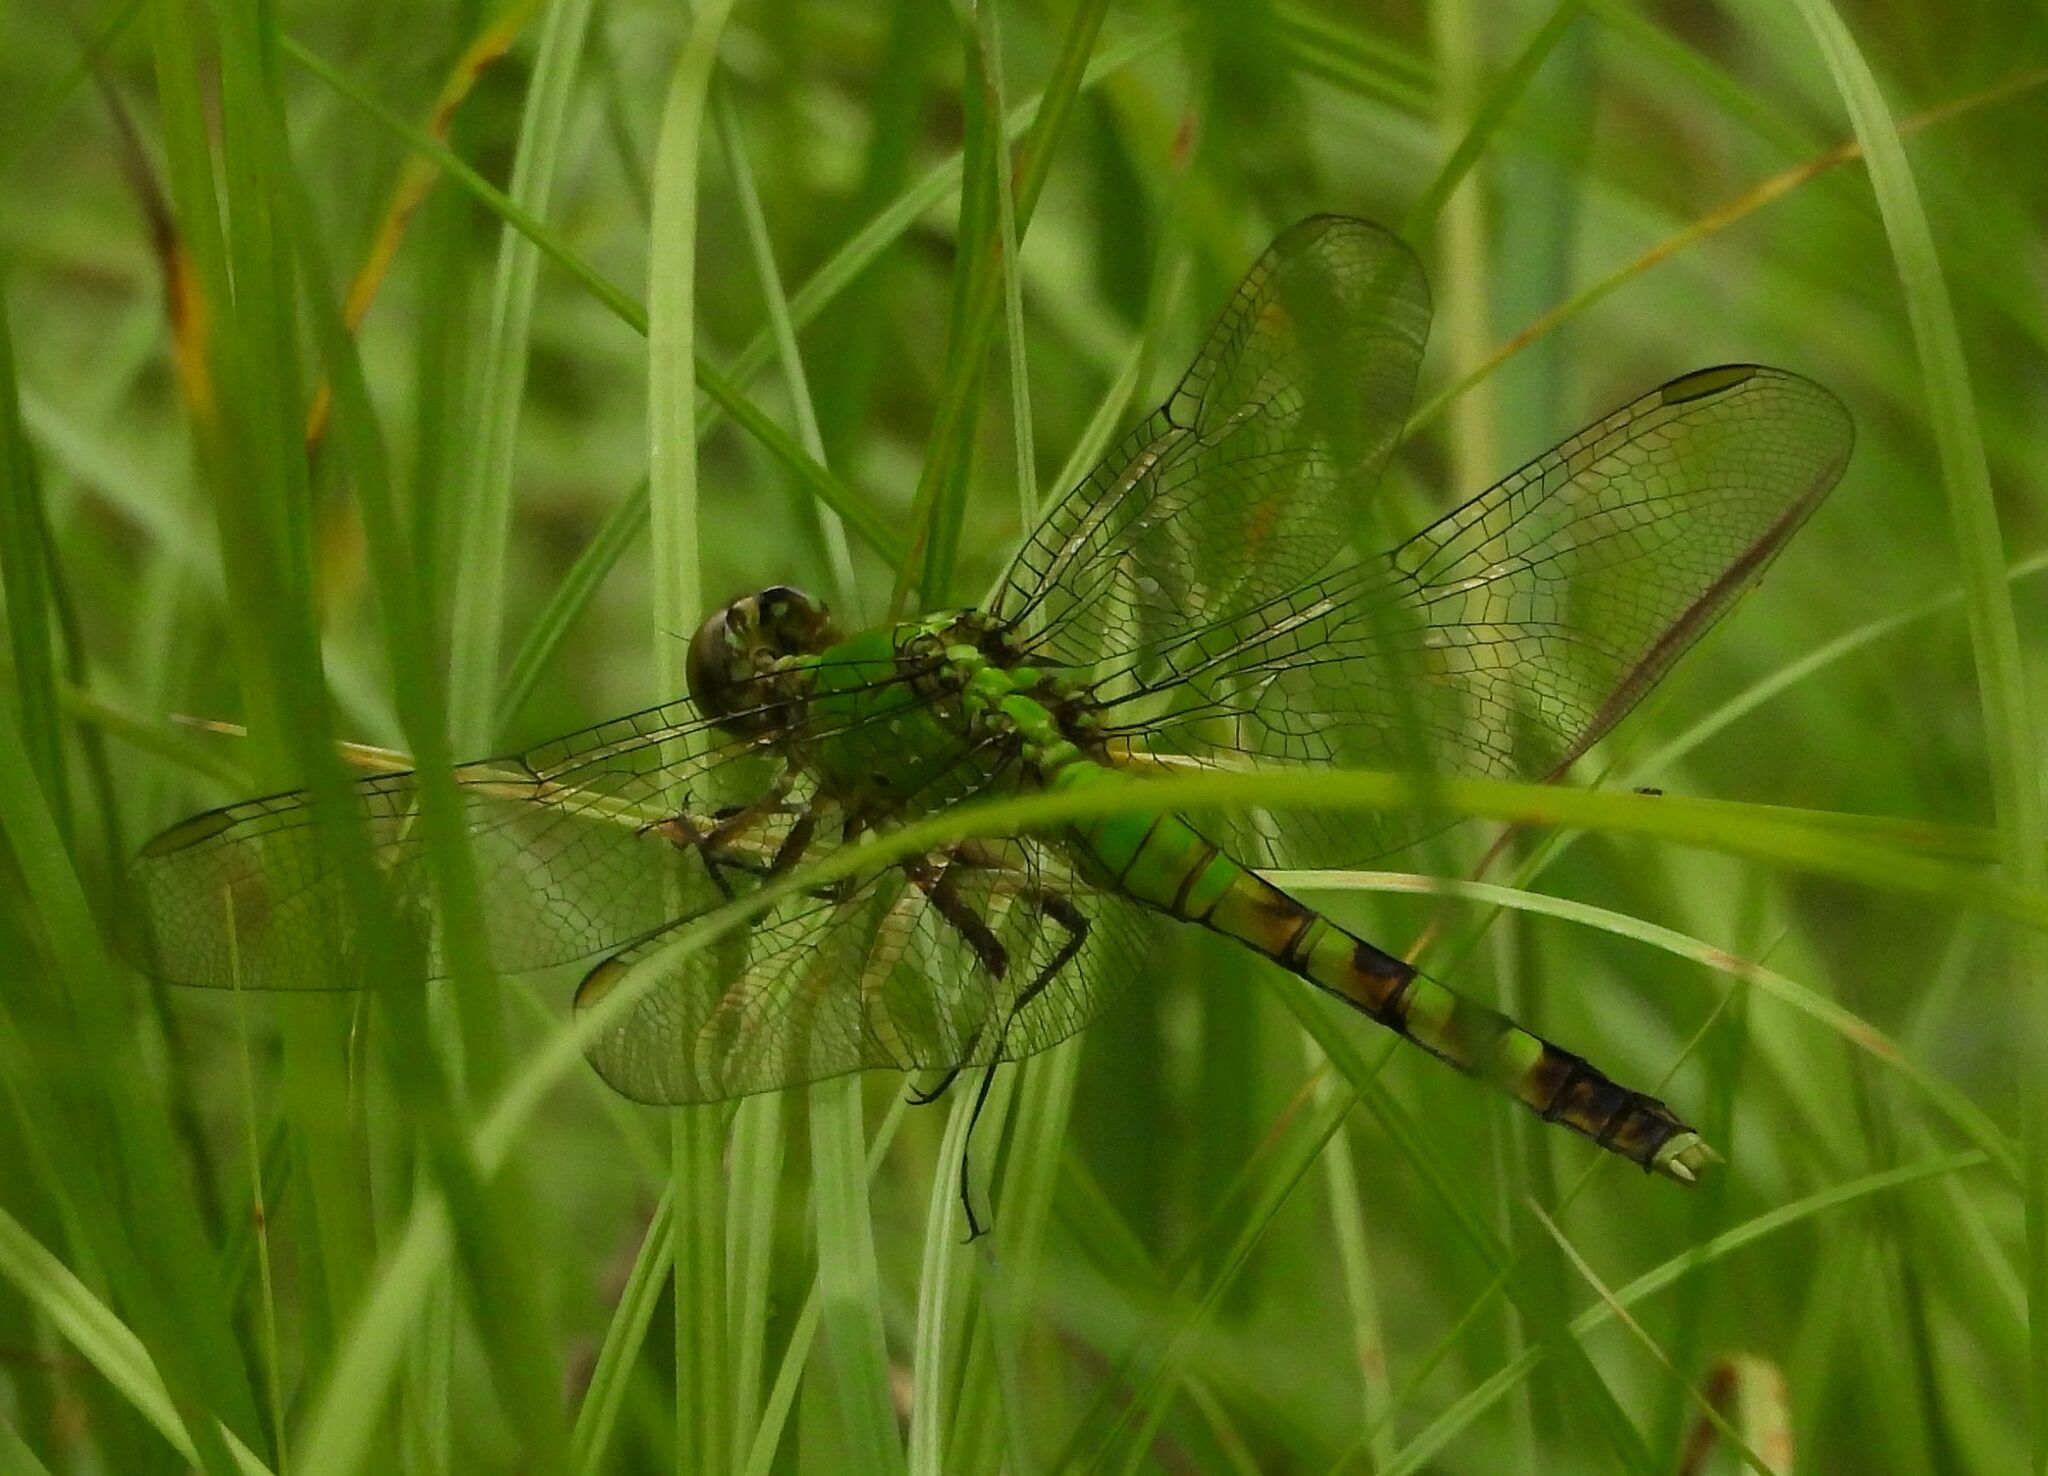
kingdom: Animalia
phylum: Arthropoda
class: Insecta
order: Odonata
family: Libellulidae
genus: Erythemis
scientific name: Erythemis simplicicollis
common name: Eastern pondhawk
